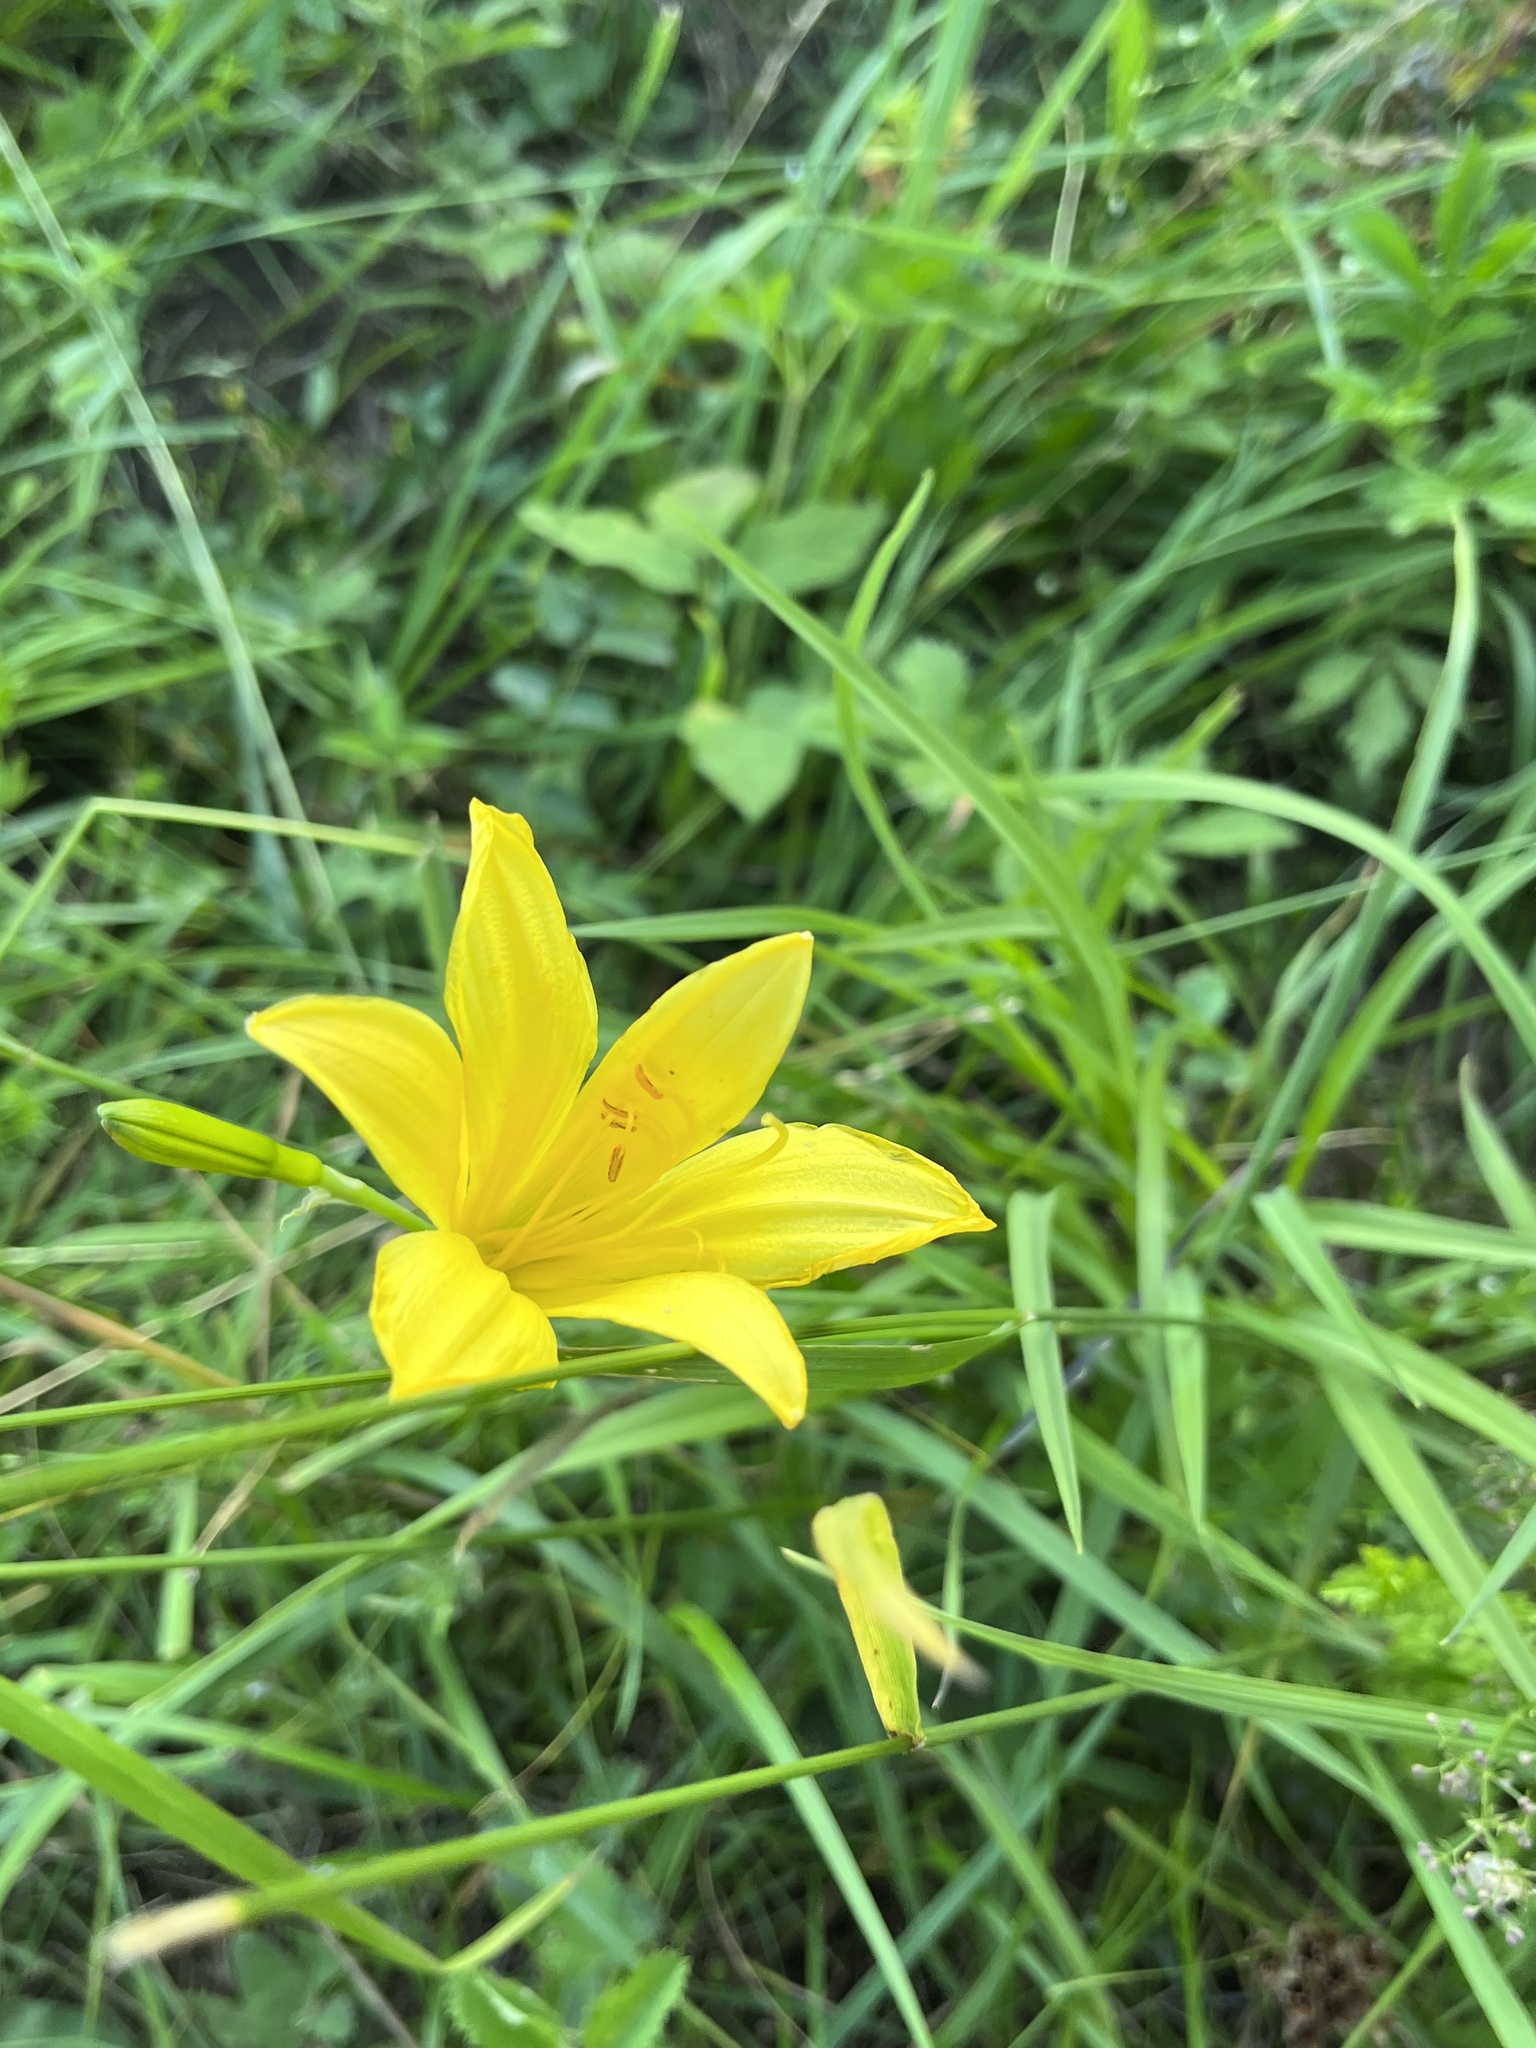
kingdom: Plantae
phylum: Tracheophyta
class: Liliopsida
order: Asparagales
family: Asphodelaceae
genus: Hemerocallis
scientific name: Hemerocallis minor
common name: Small daylily
